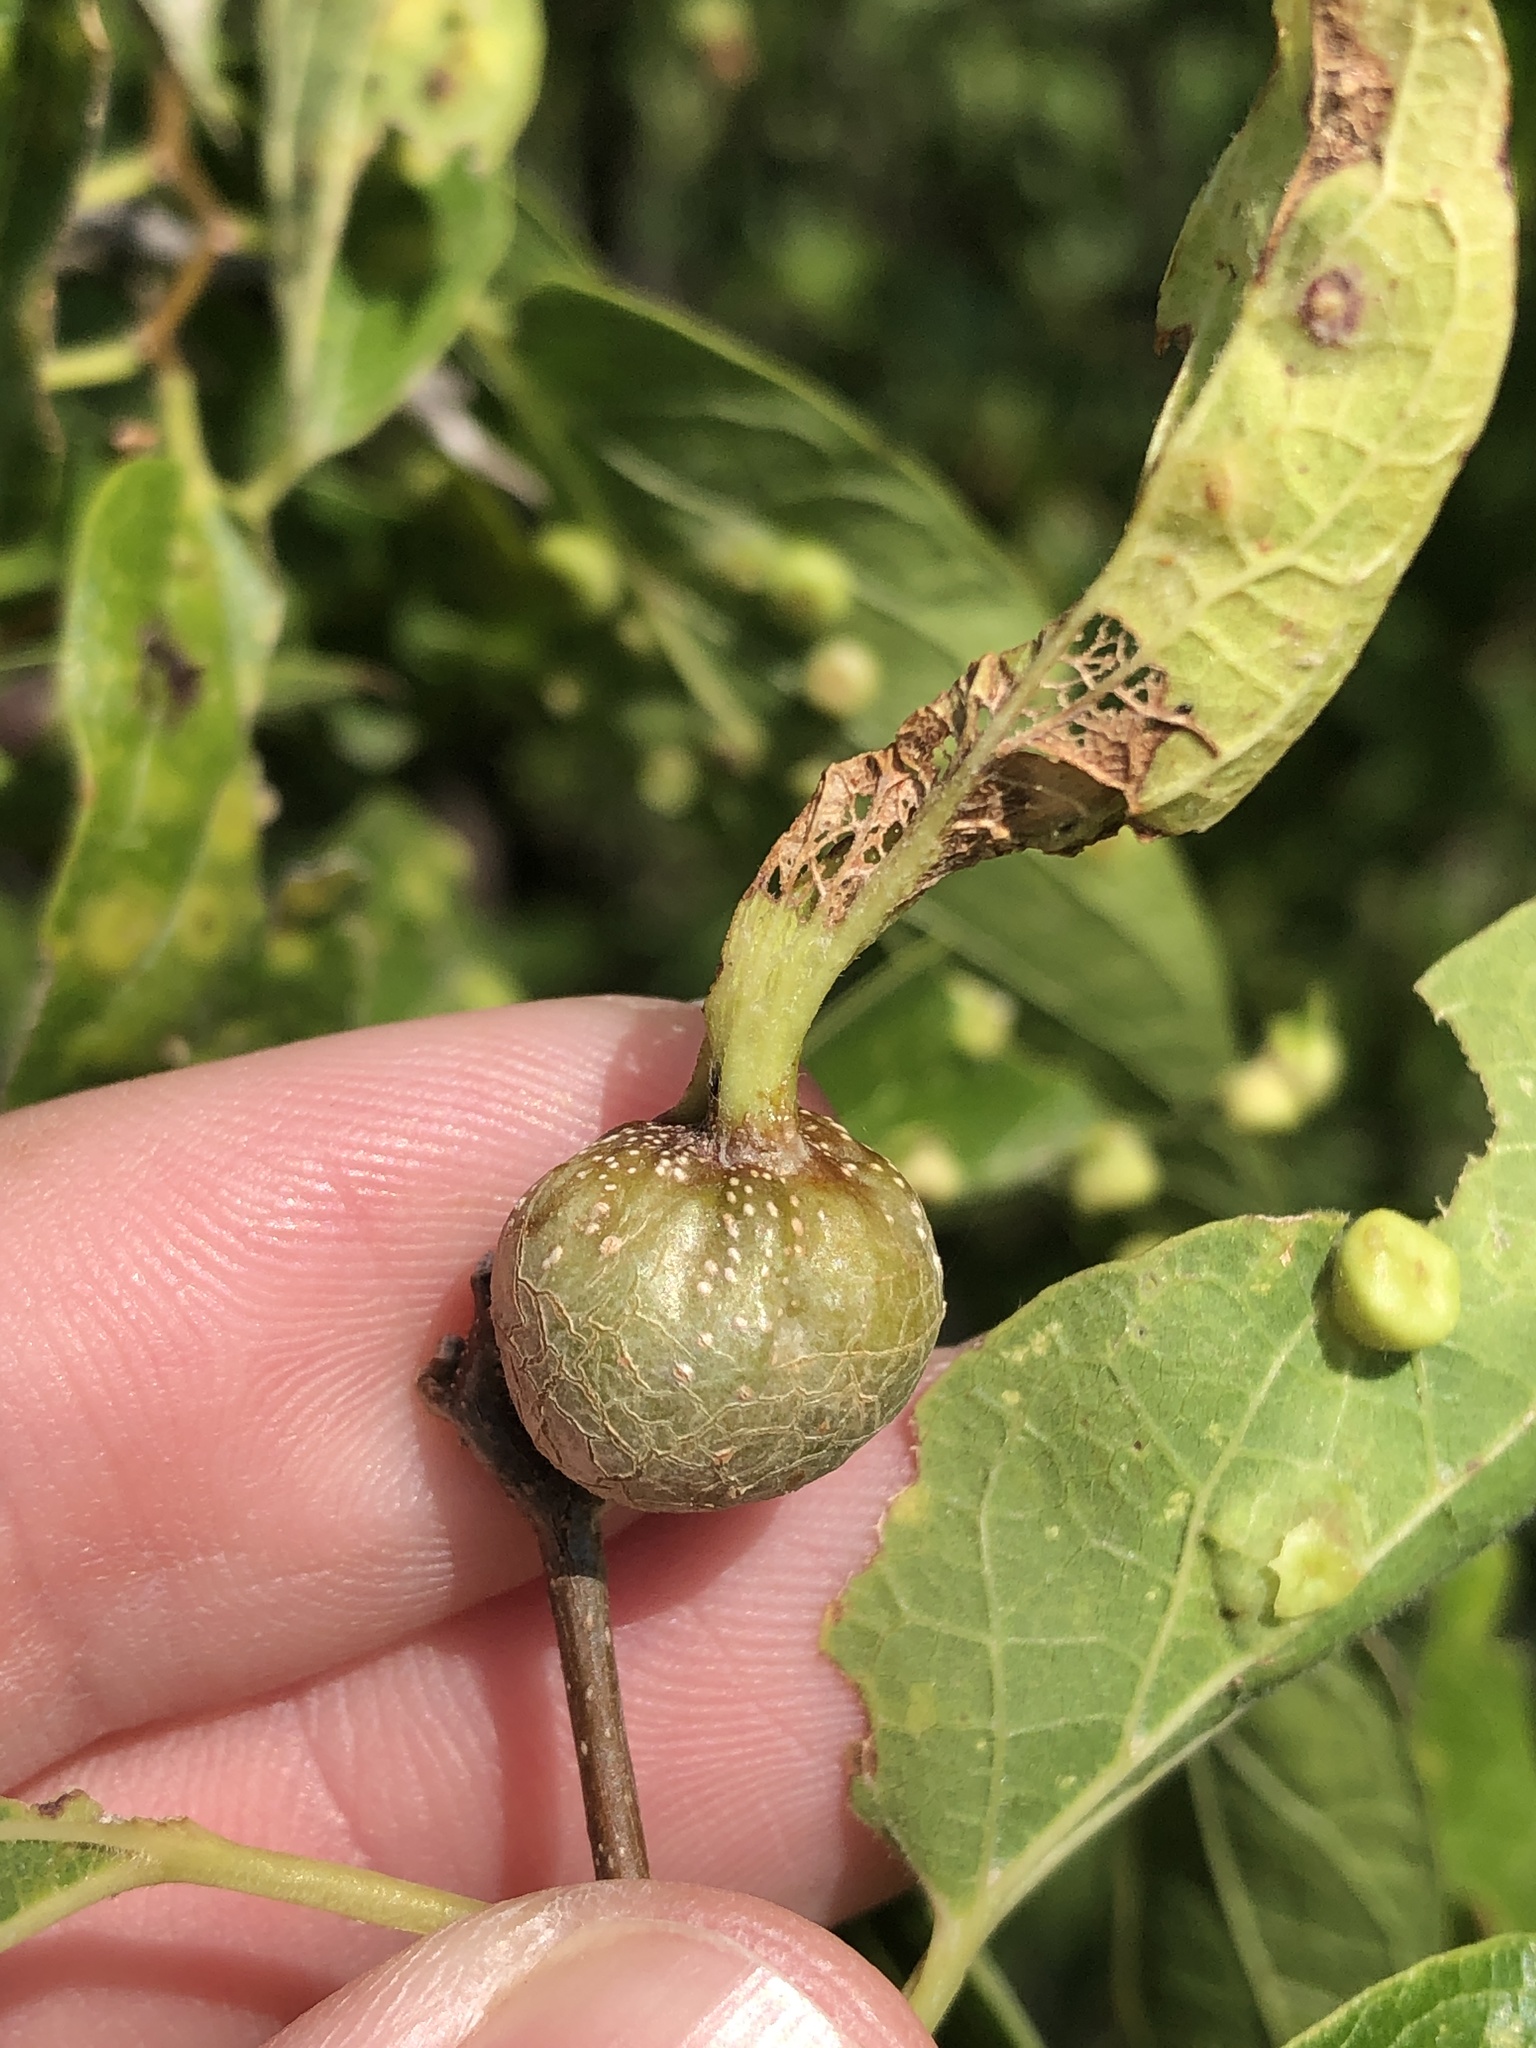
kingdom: Animalia
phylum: Arthropoda
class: Insecta
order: Hemiptera
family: Aphalaridae
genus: Pachypsylla
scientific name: Pachypsylla venusta
